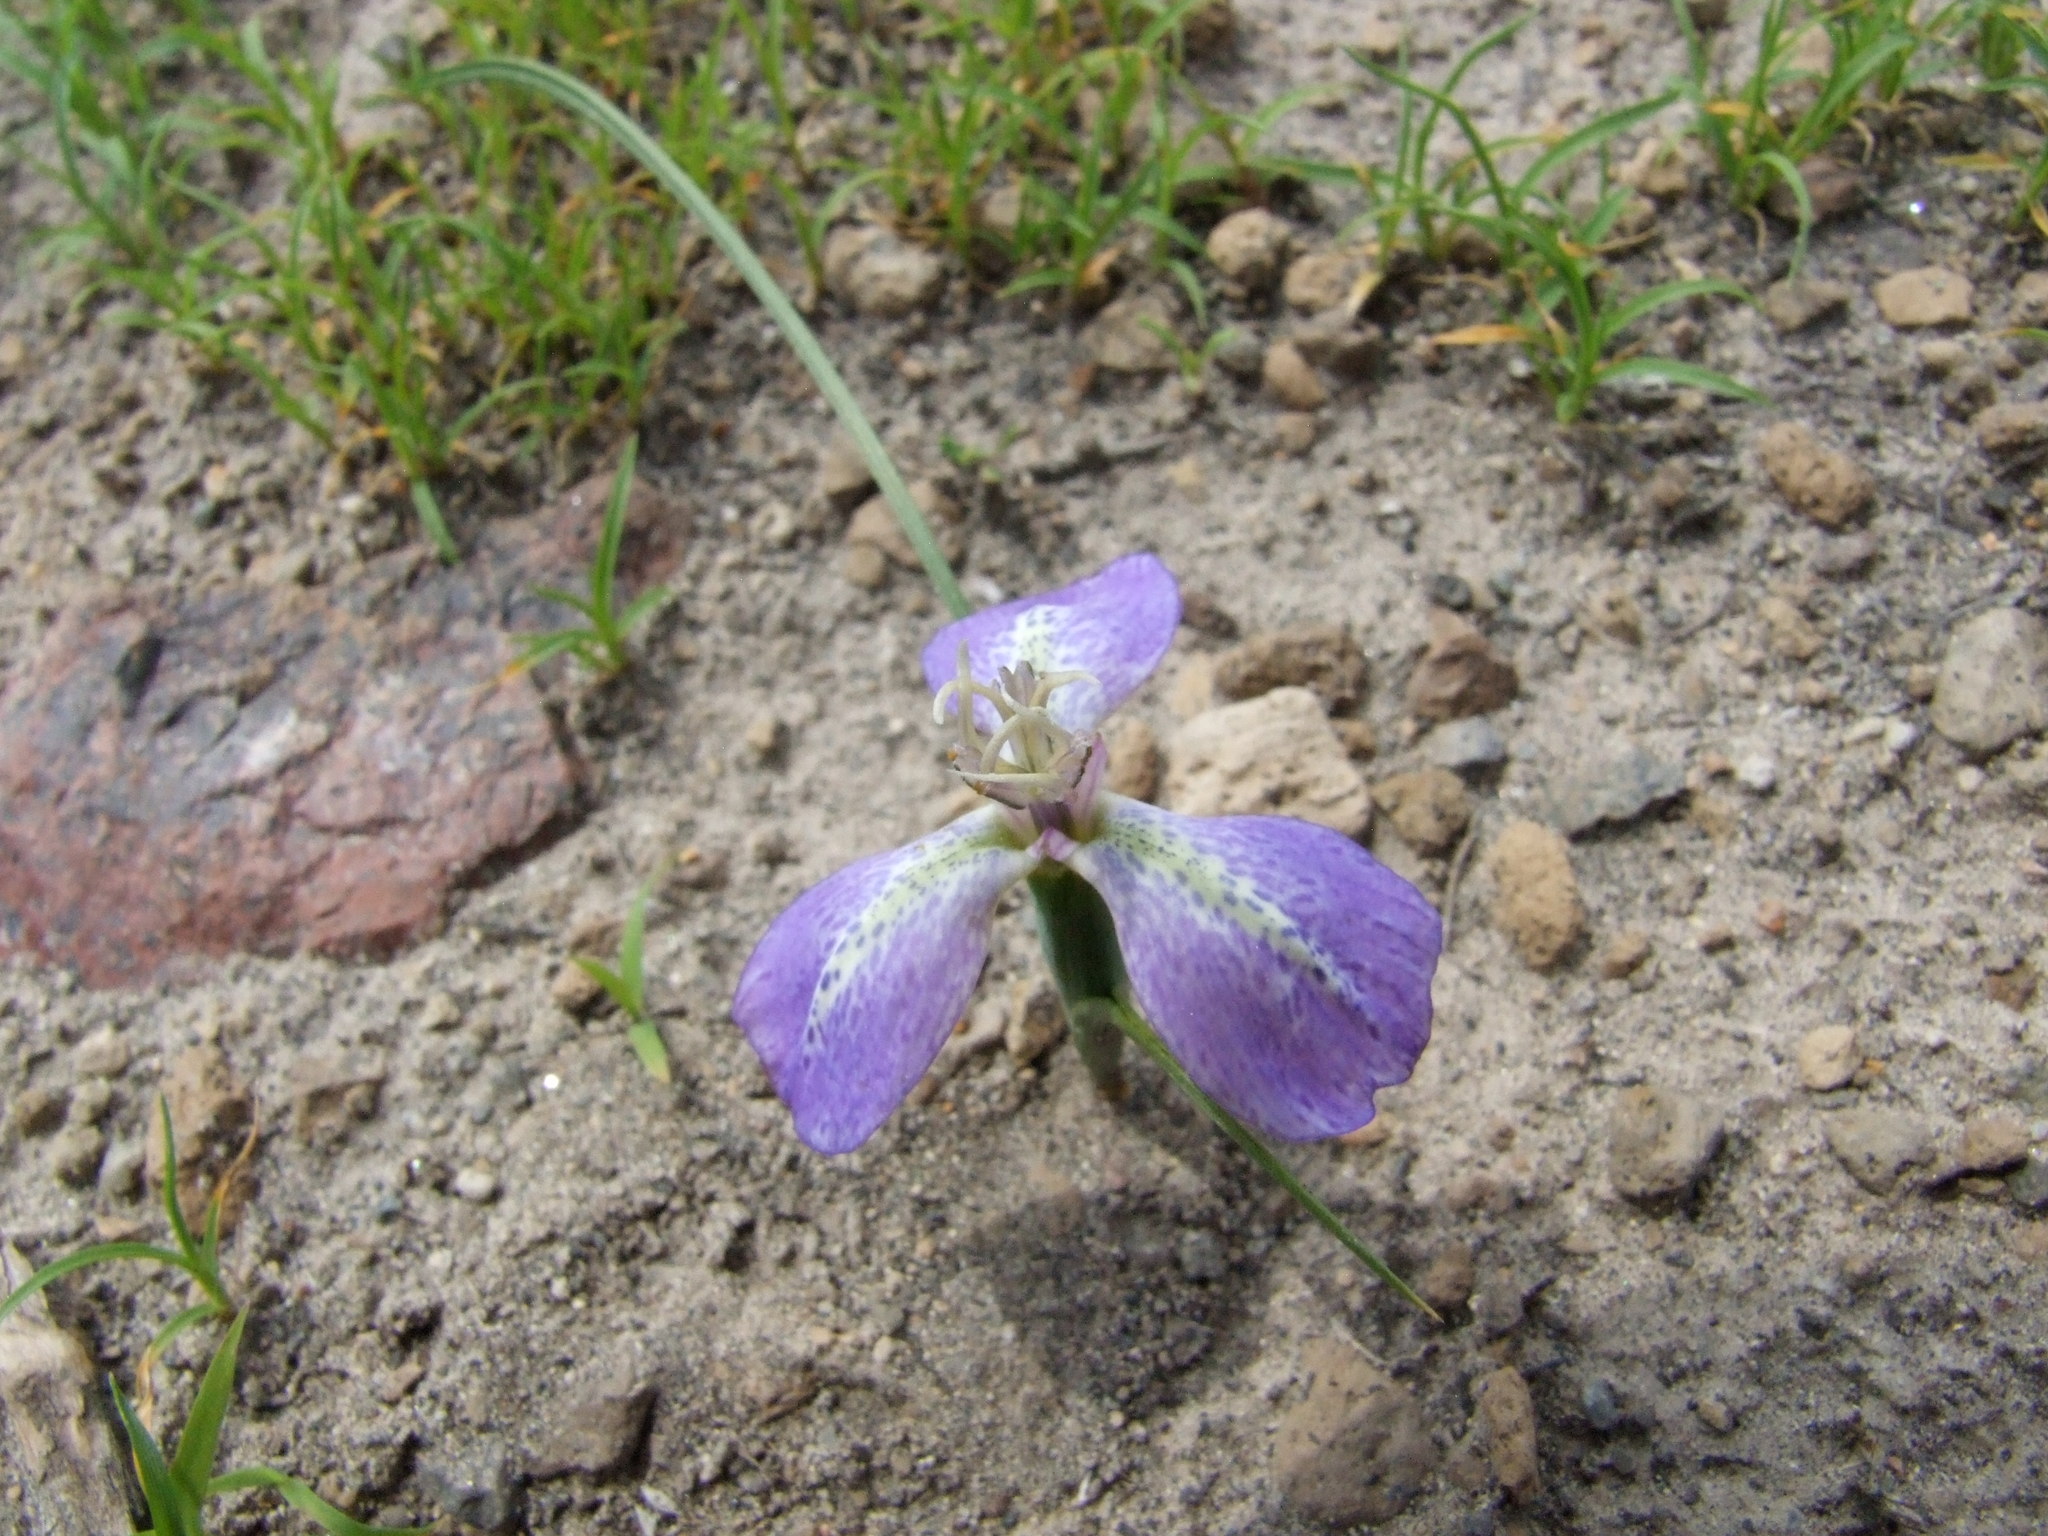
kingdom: Plantae
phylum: Tracheophyta
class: Liliopsida
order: Asparagales
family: Iridaceae
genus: Mastigostyla
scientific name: Mastigostyla hoppii
